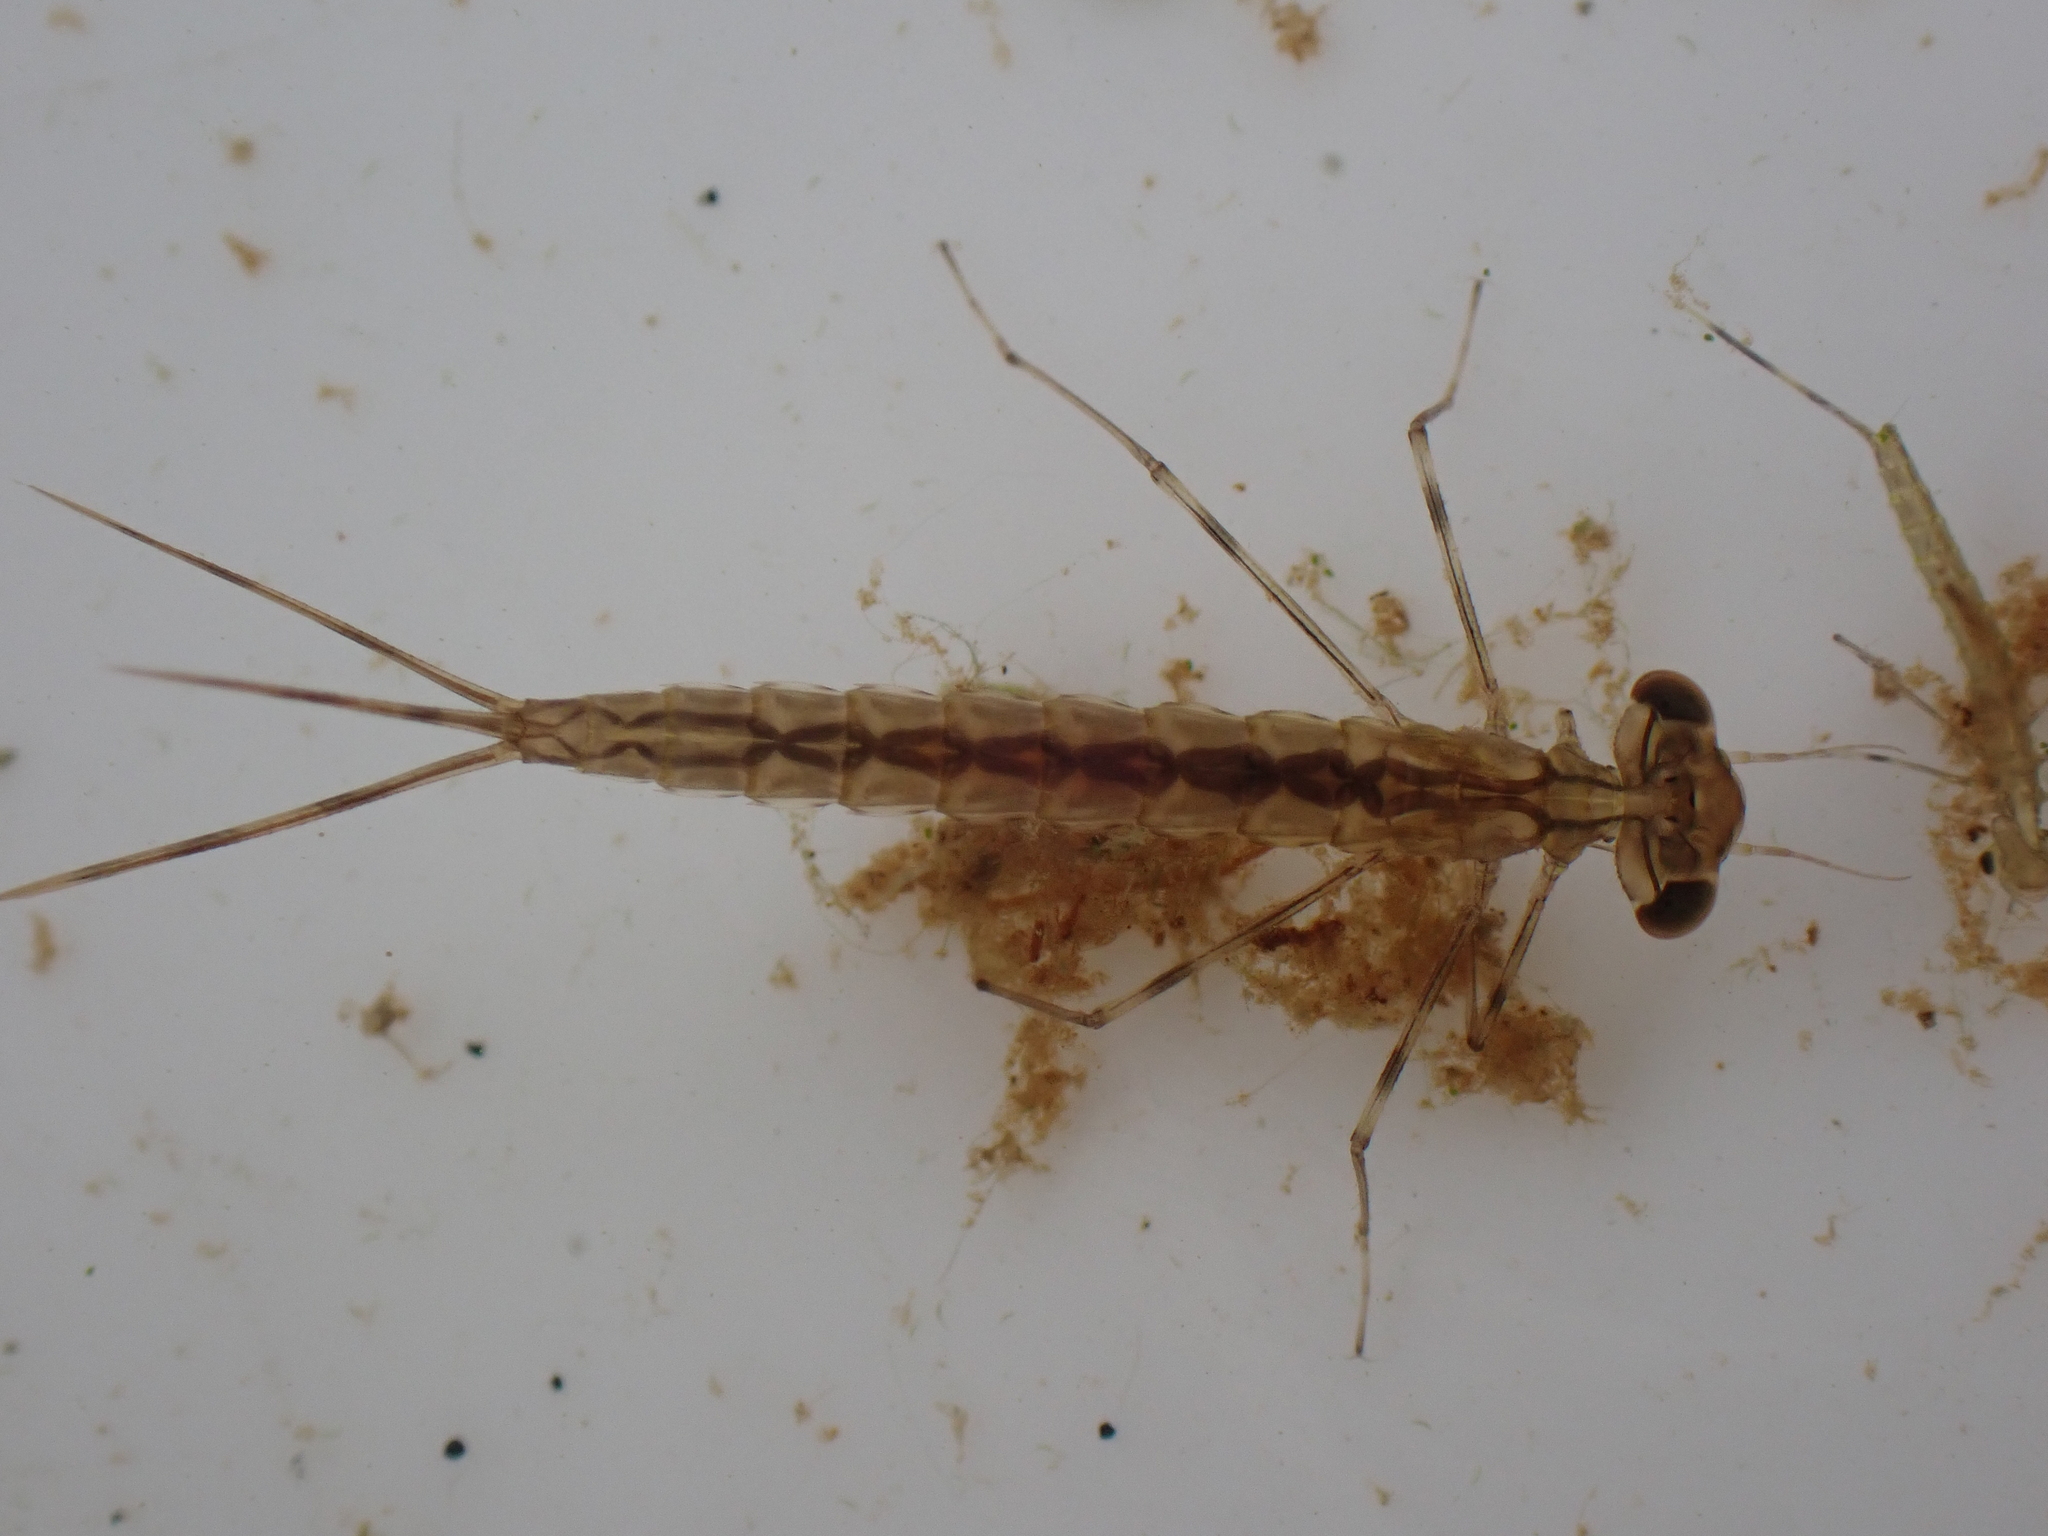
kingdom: Animalia
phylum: Arthropoda
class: Insecta
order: Odonata
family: Lestidae
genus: Austrolestes
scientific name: Austrolestes colensonis
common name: Blue damselfly
